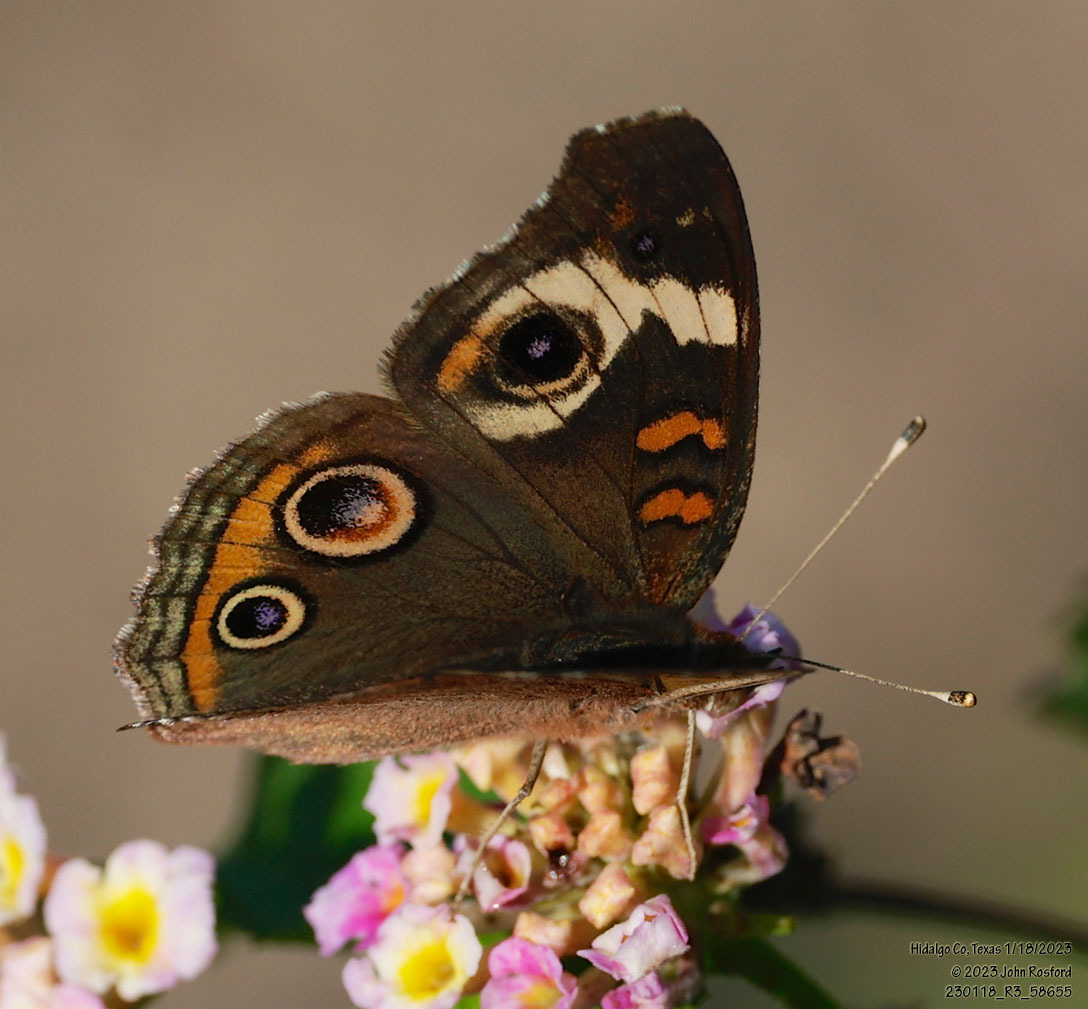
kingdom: Animalia
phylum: Arthropoda
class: Insecta
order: Lepidoptera
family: Nymphalidae
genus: Junonia
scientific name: Junonia coenia
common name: Common buckeye
